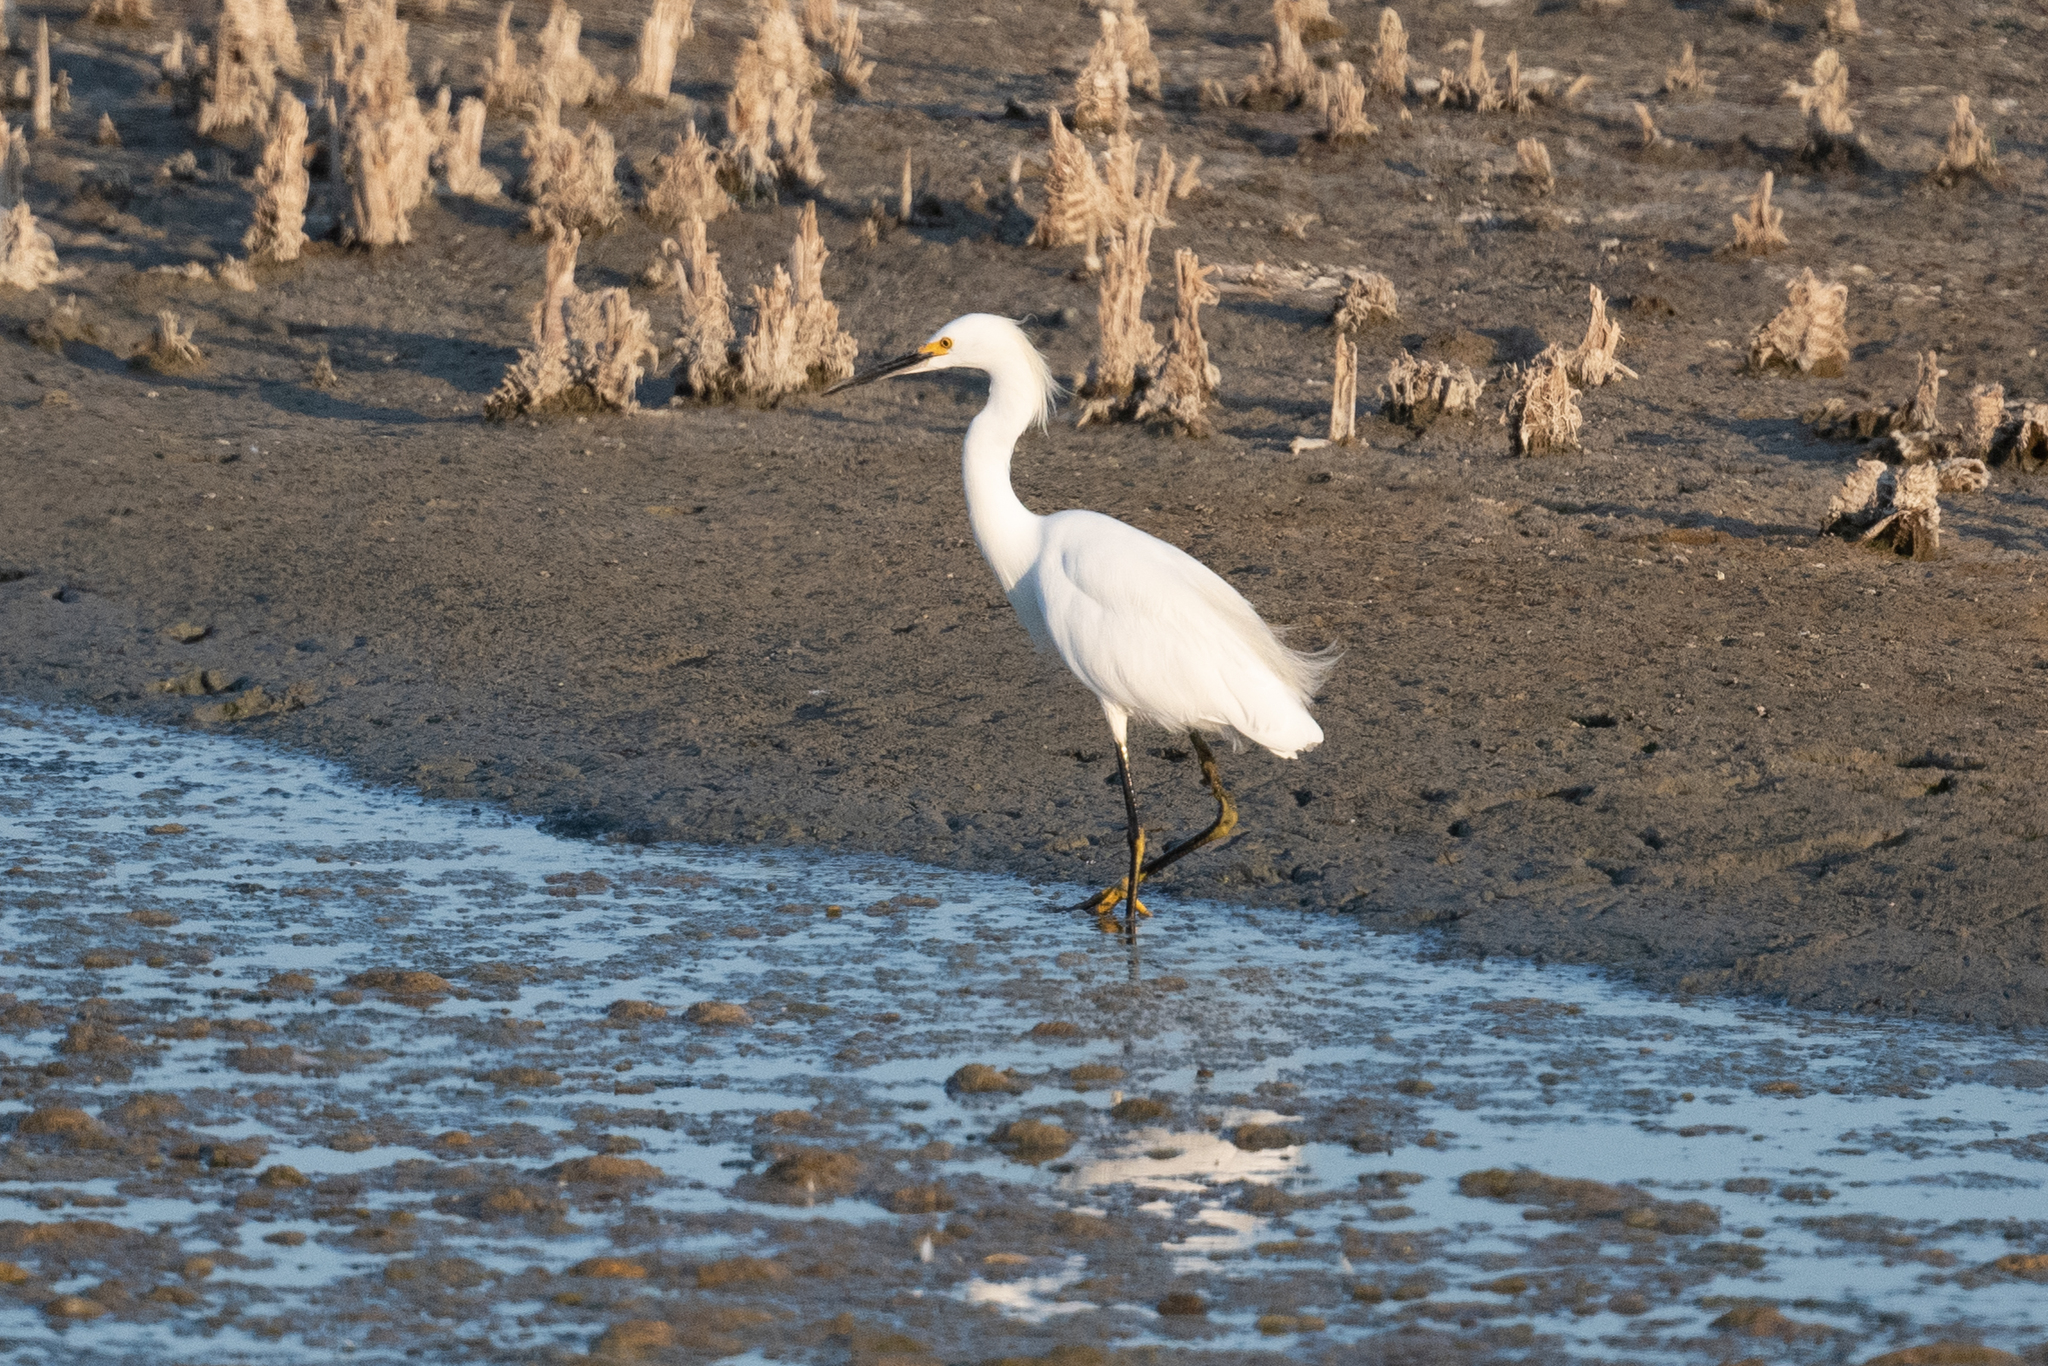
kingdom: Animalia
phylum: Chordata
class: Aves
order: Pelecaniformes
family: Ardeidae
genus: Egretta
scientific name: Egretta thula
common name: Snowy egret
